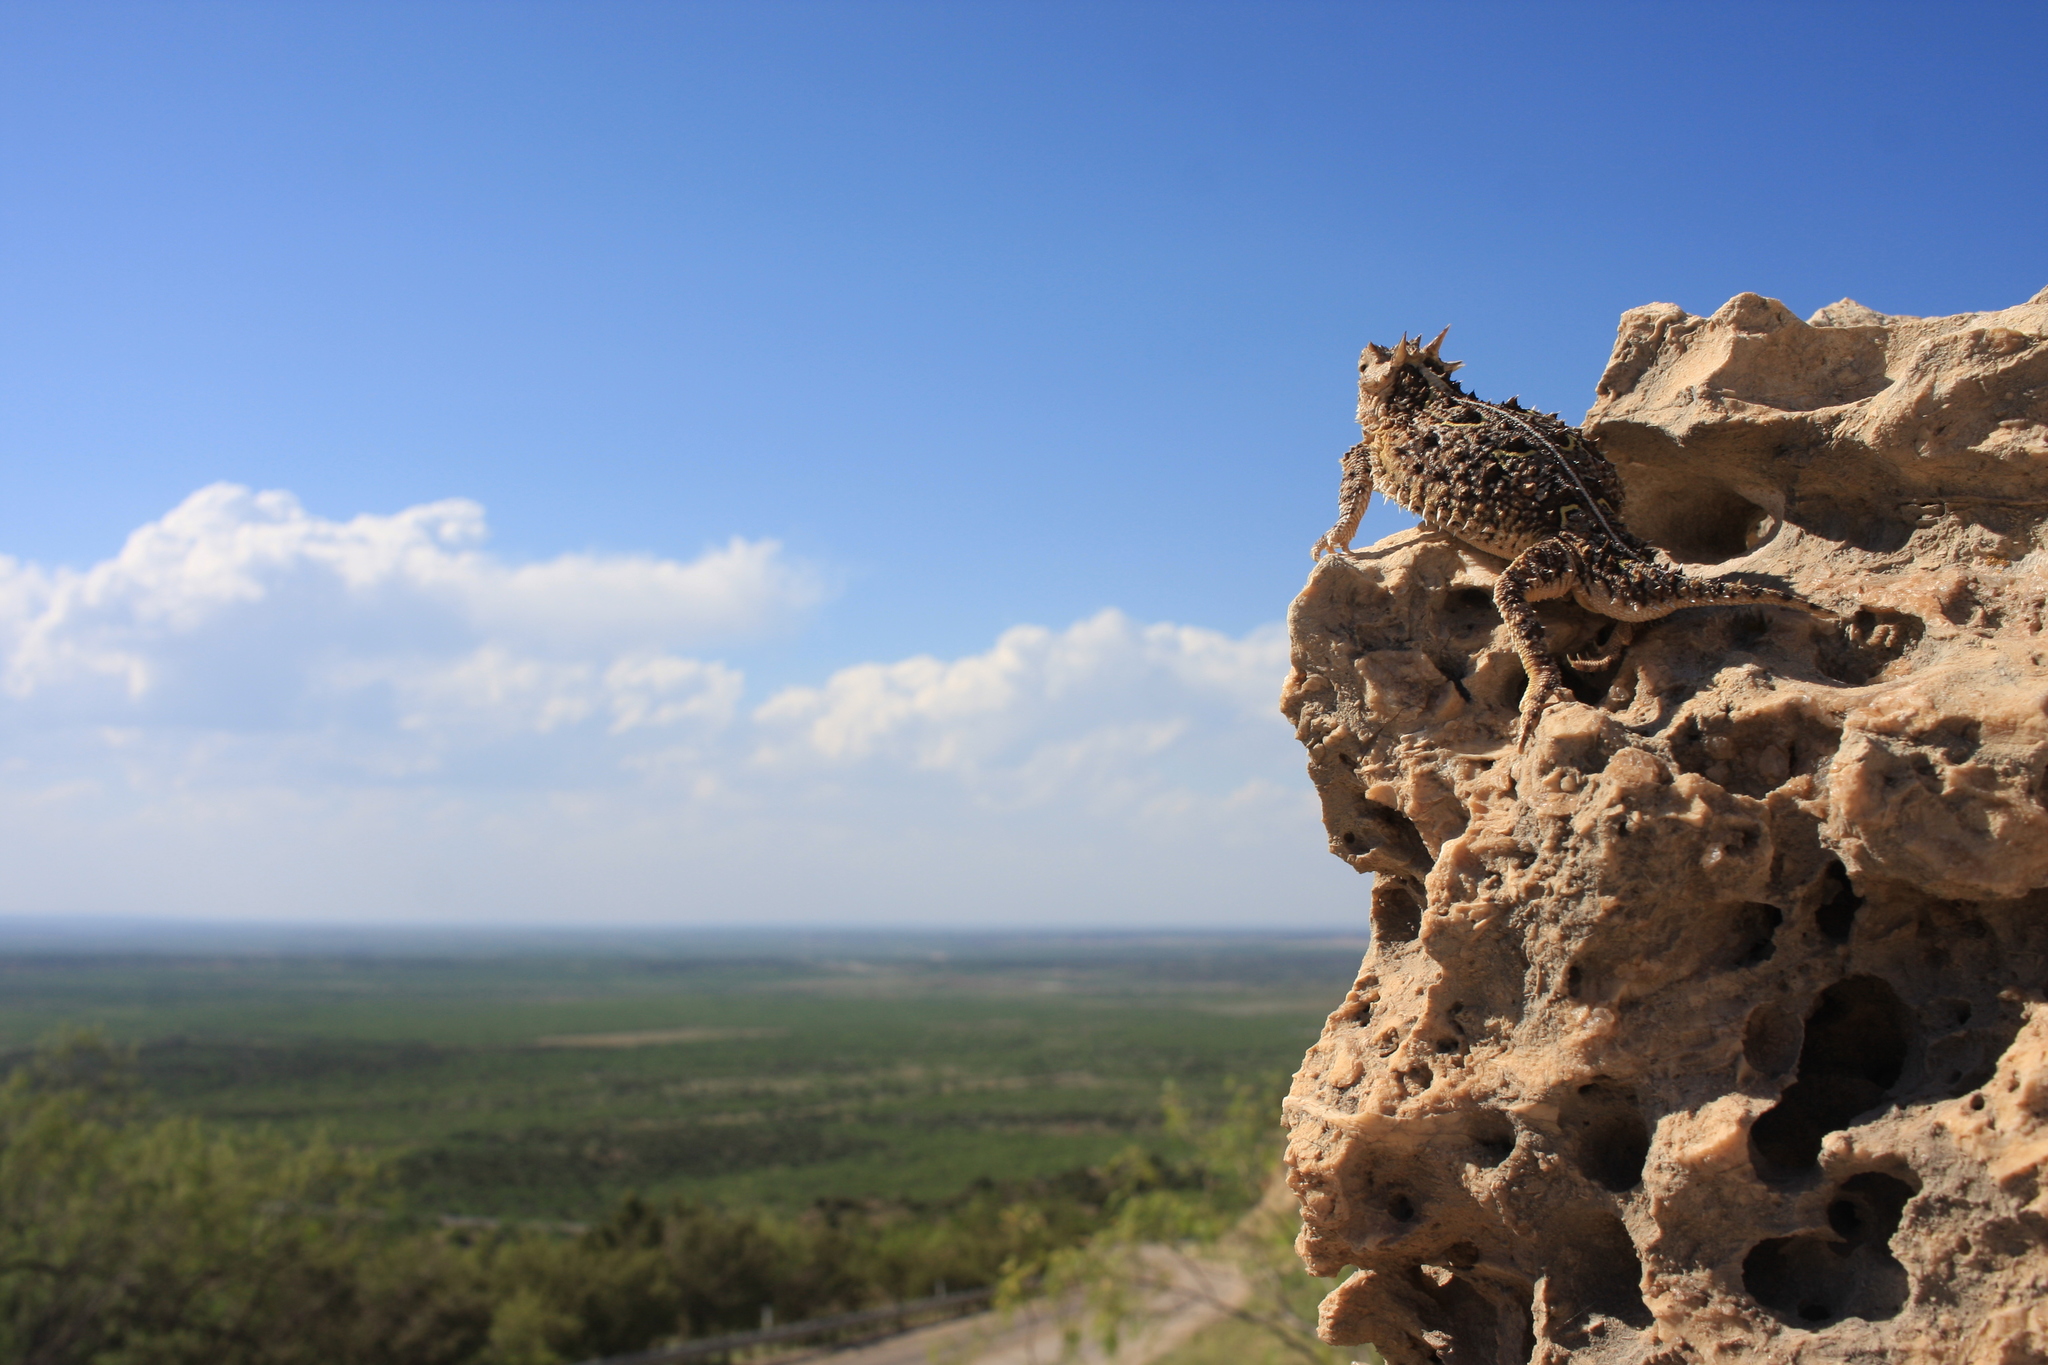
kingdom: Animalia
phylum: Chordata
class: Squamata
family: Phrynosomatidae
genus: Phrynosoma
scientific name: Phrynosoma cornutum
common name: Texas horned lizard
